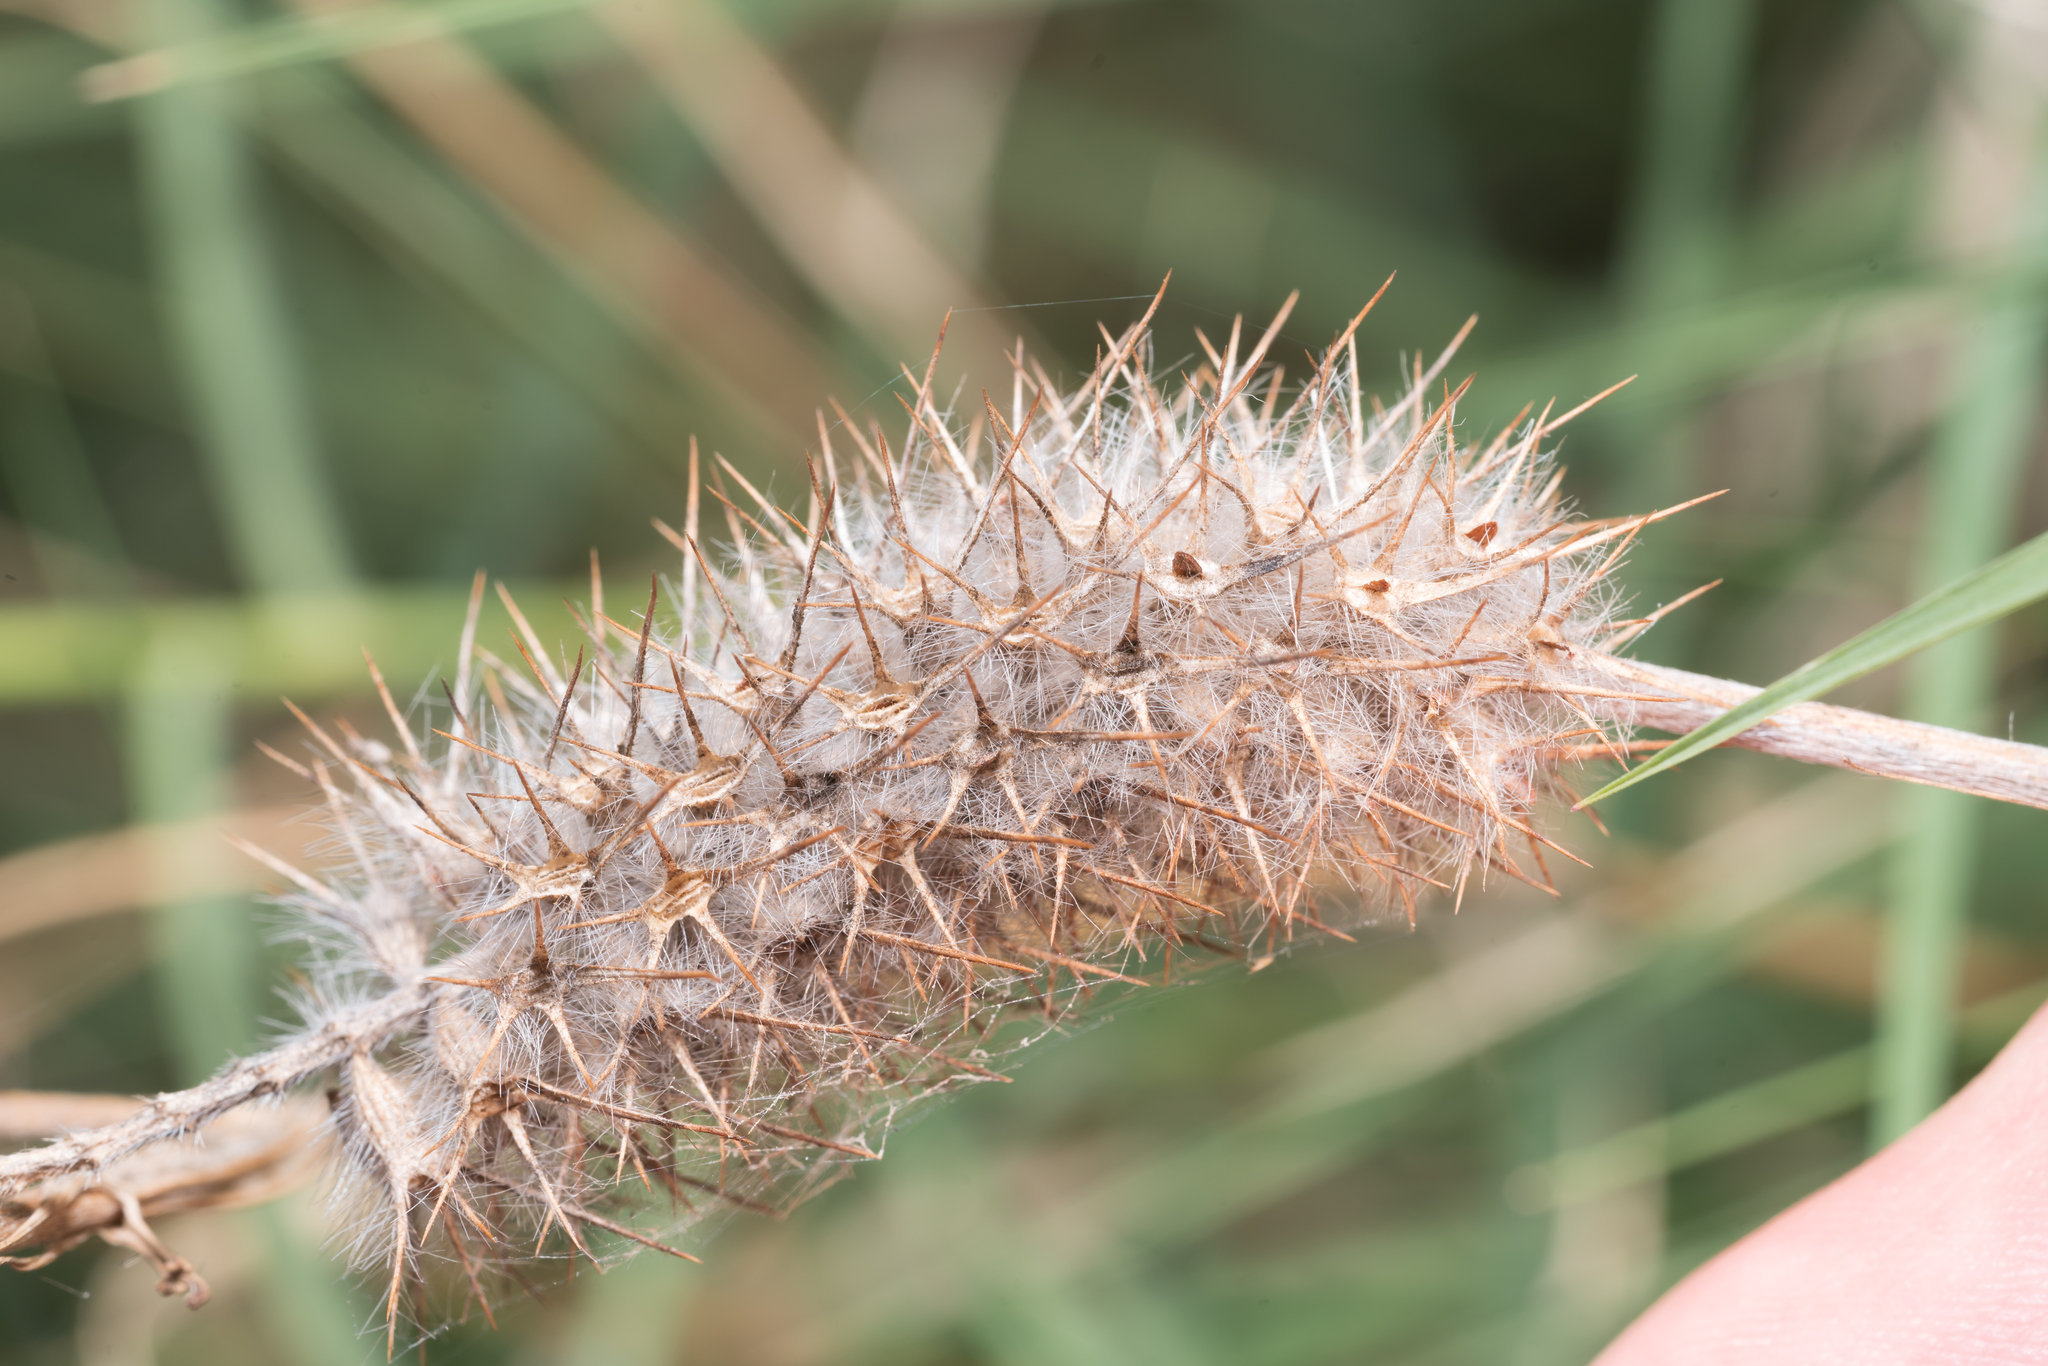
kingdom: Plantae
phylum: Tracheophyta
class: Magnoliopsida
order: Fabales
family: Fabaceae
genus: Trifolium
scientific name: Trifolium angustifolium
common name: Narrow clover
